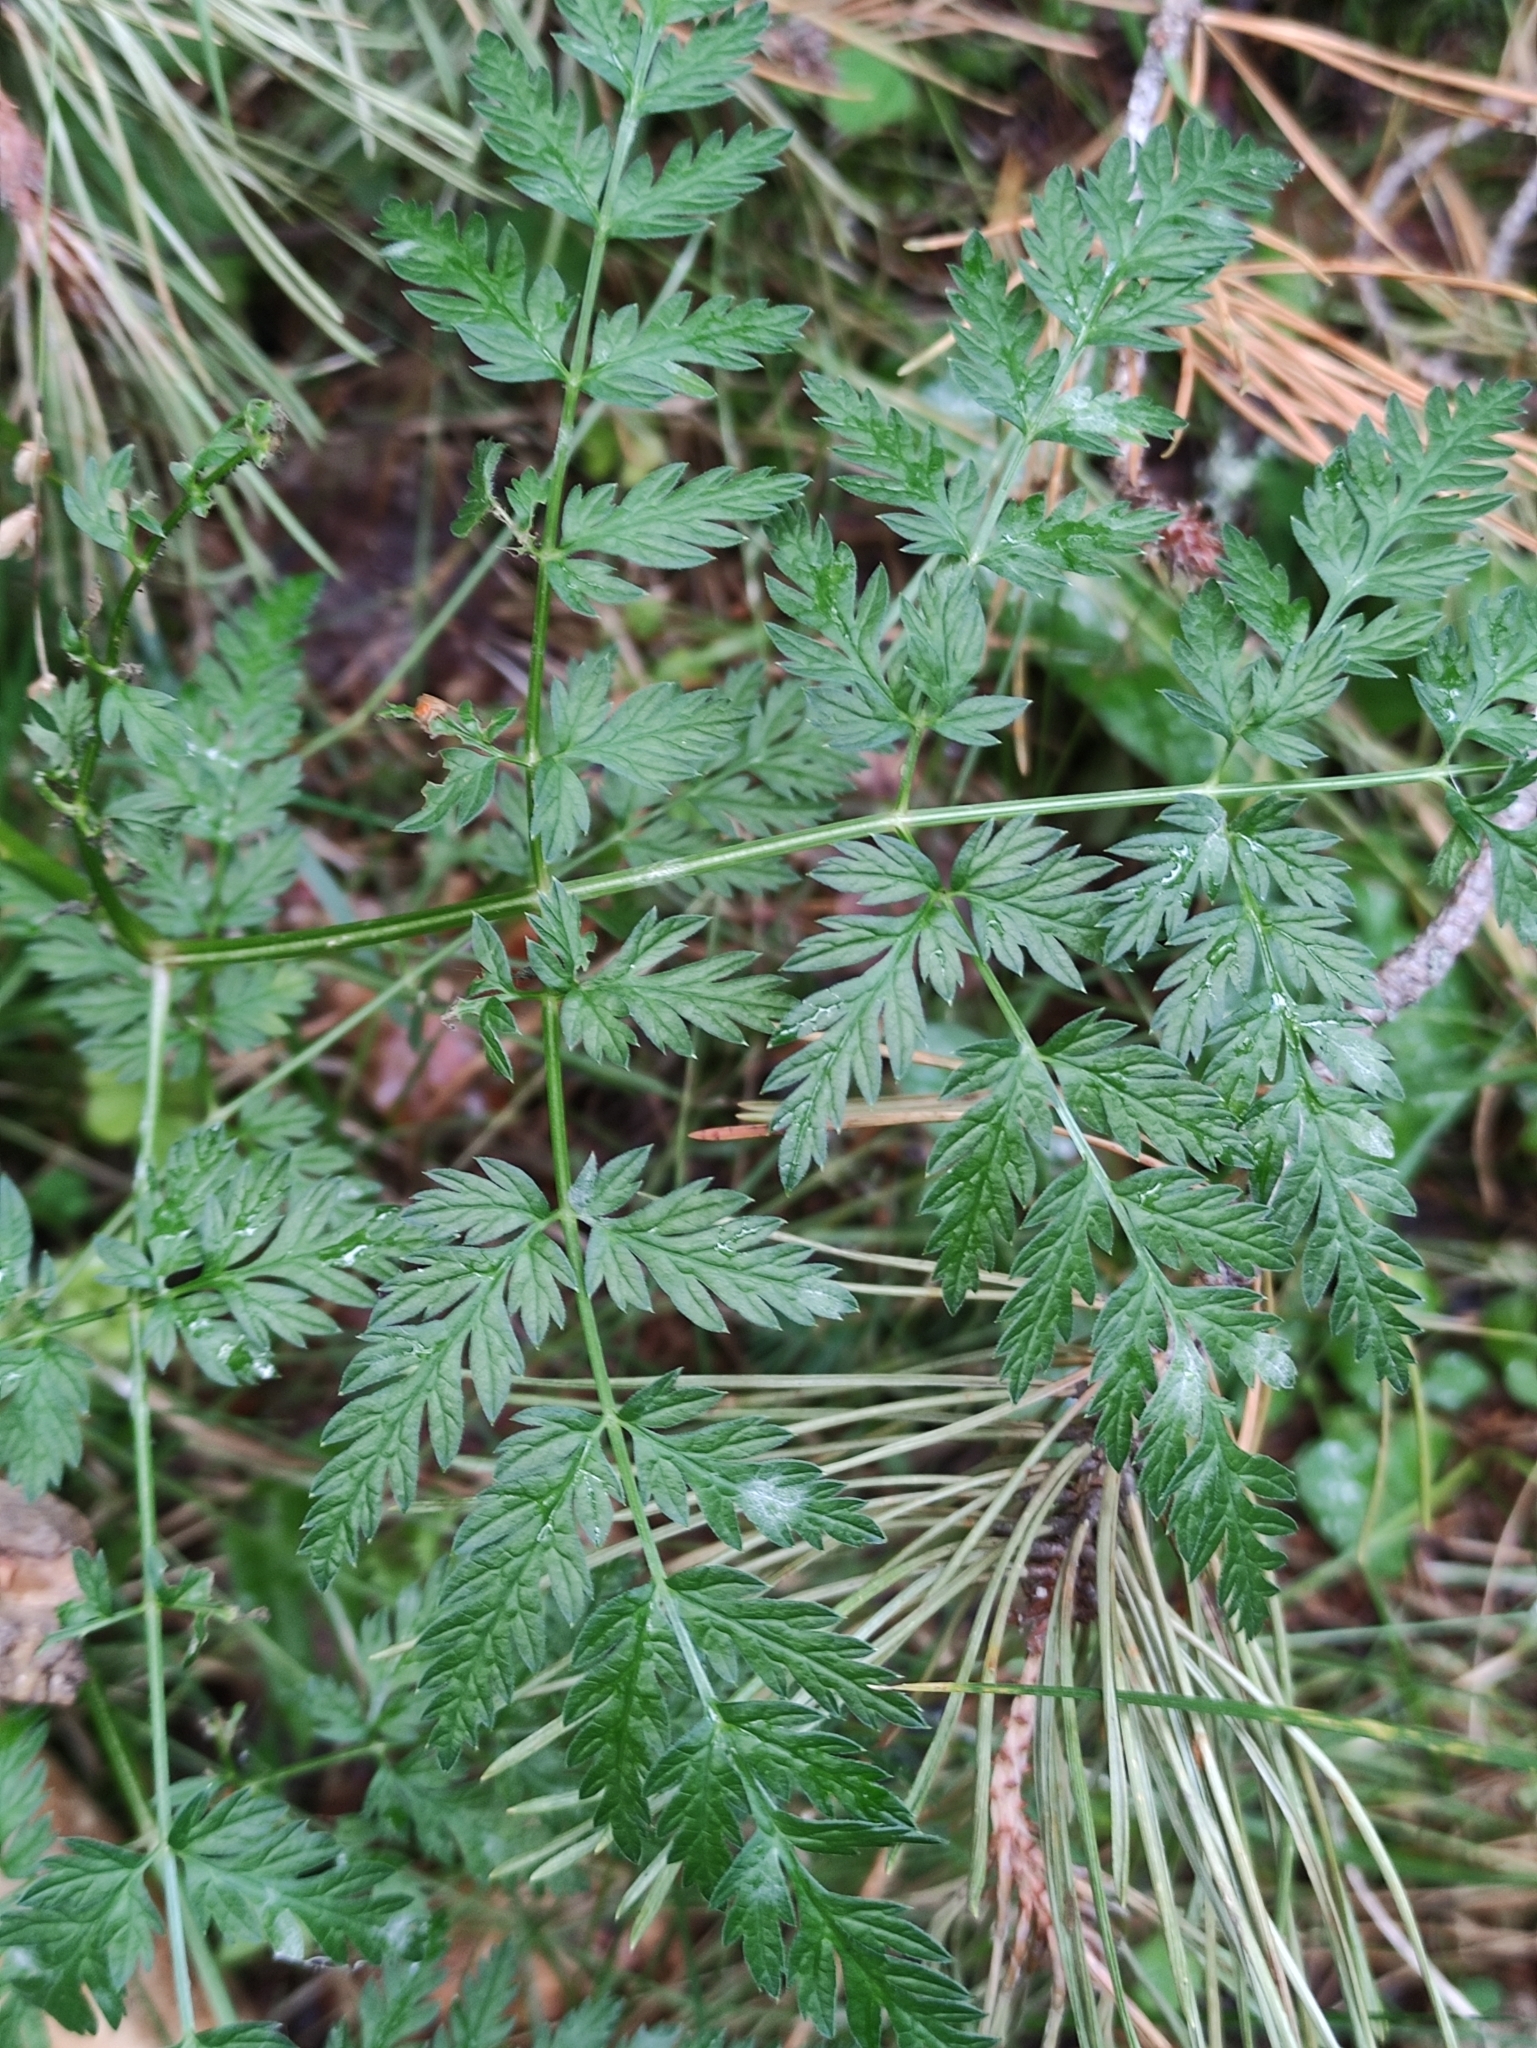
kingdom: Plantae
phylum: Tracheophyta
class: Magnoliopsida
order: Apiales
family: Apiaceae
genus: Anthriscus
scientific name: Anthriscus sylvestris
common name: Cow parsley
